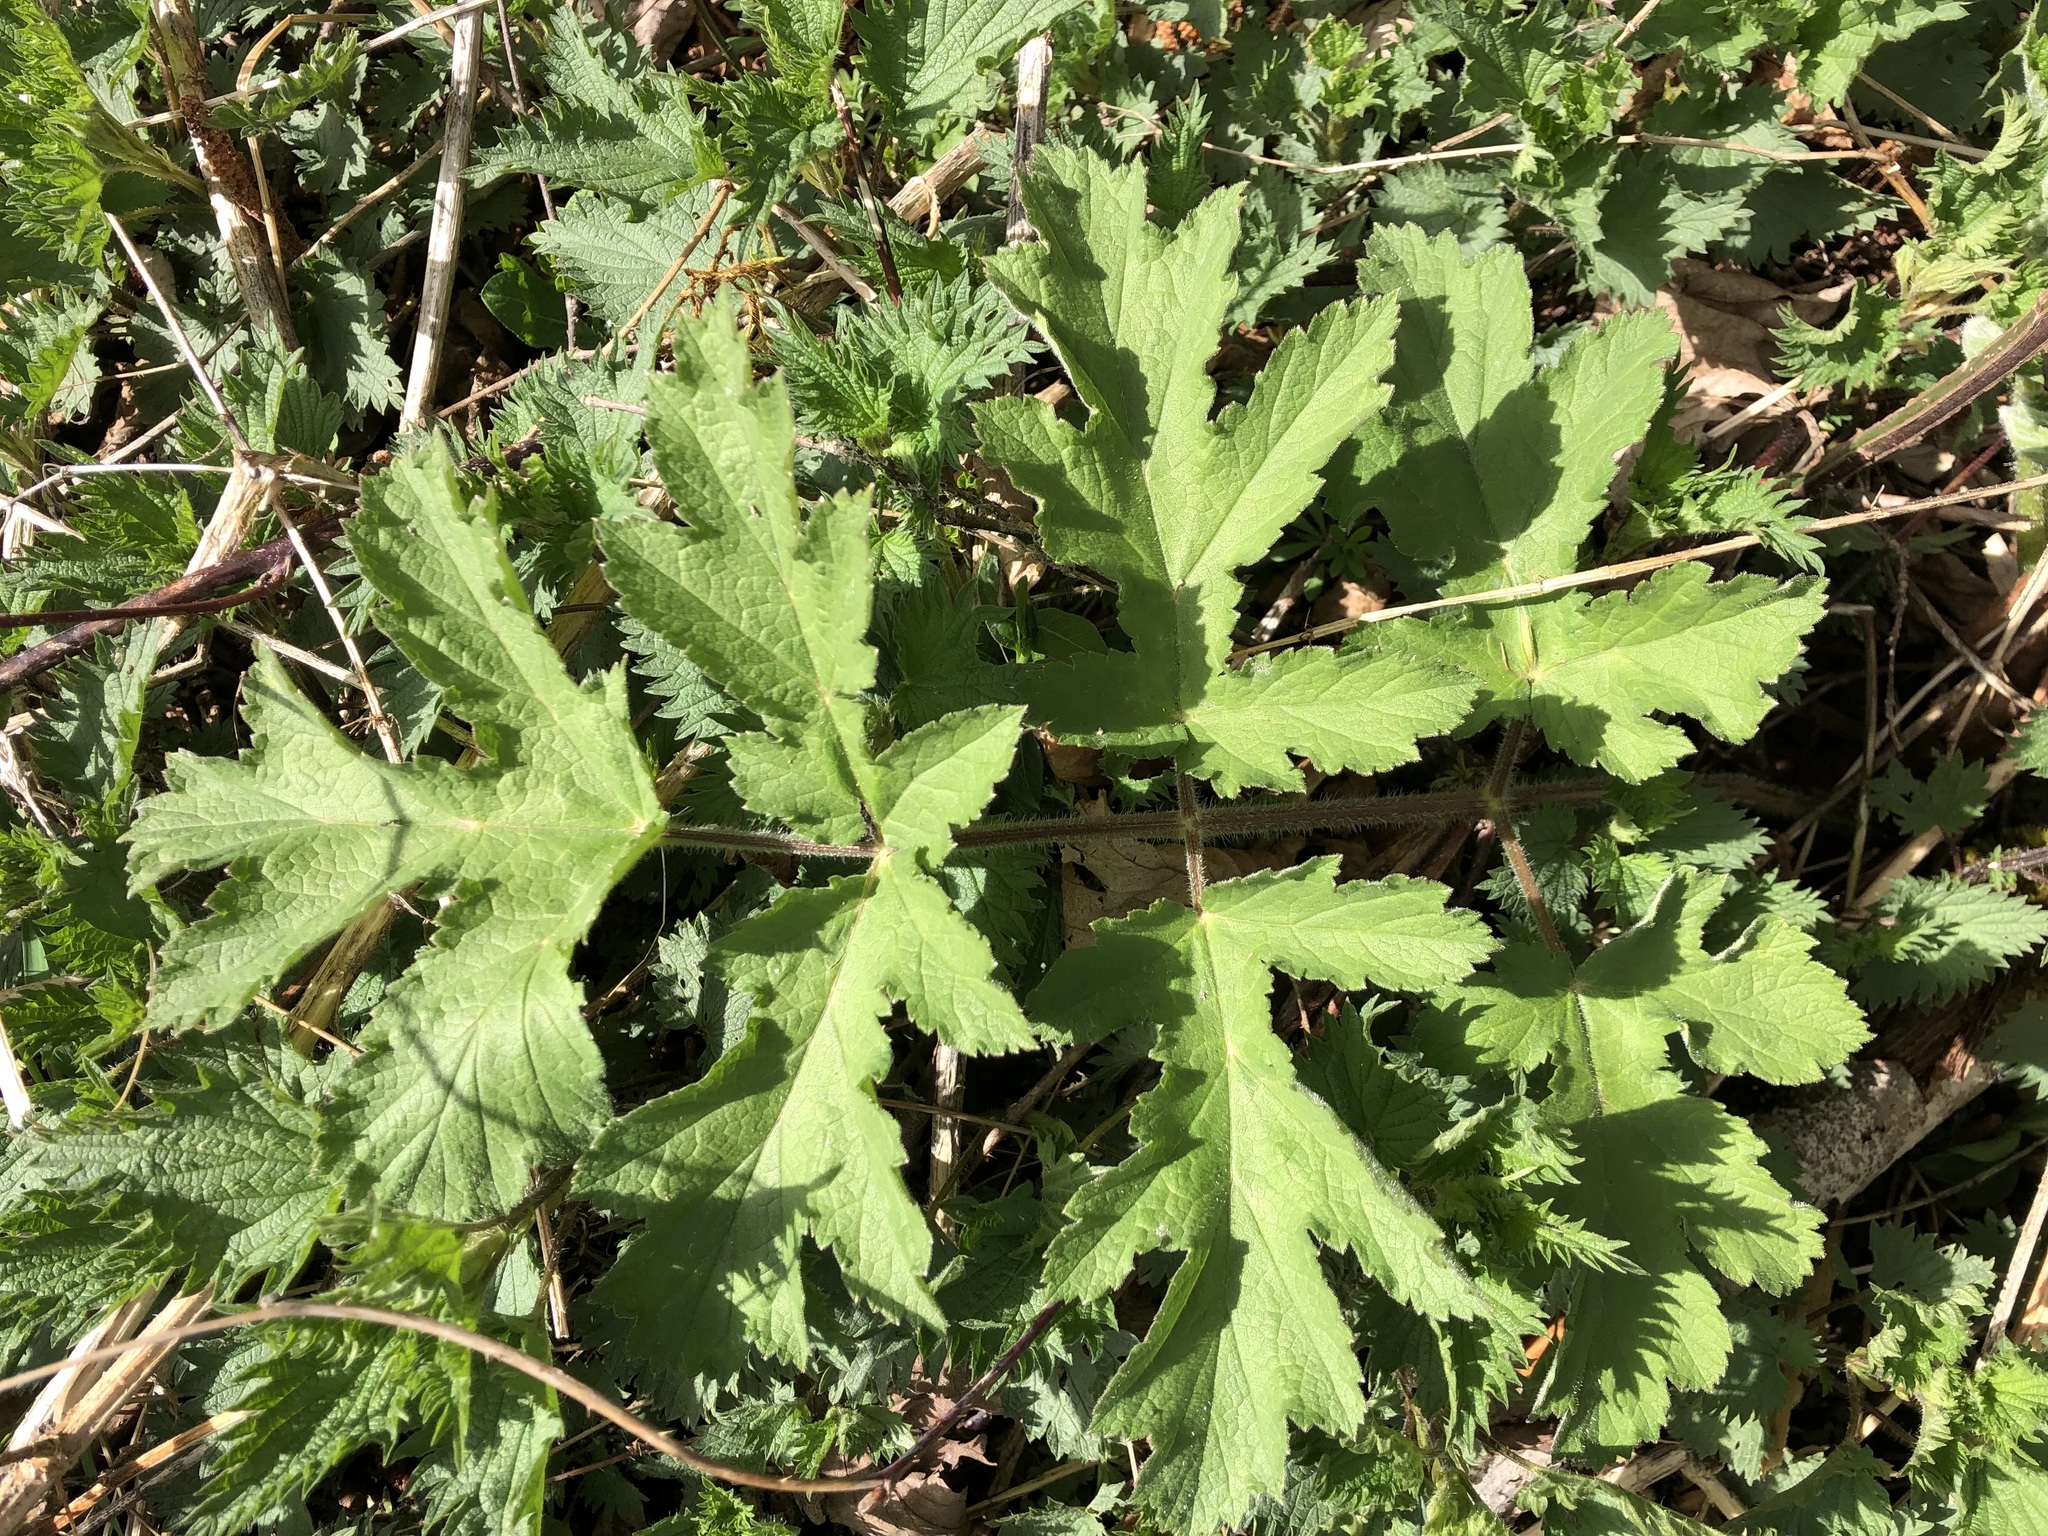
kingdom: Plantae
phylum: Tracheophyta
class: Magnoliopsida
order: Apiales
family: Apiaceae
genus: Heracleum
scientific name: Heracleum sphondylium
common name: Hogweed
